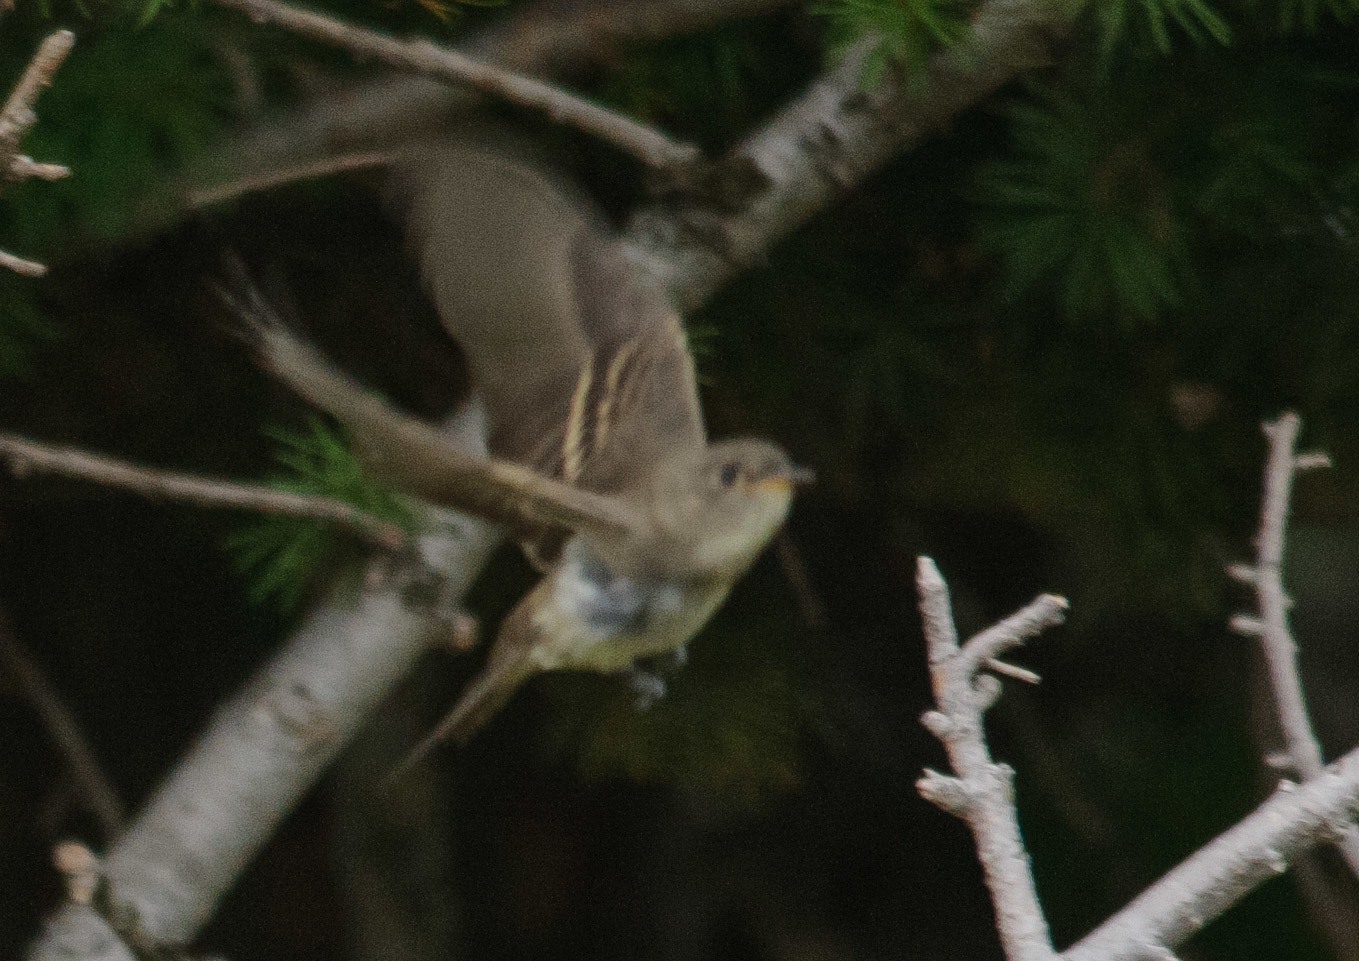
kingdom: Animalia
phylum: Chordata
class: Aves
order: Passeriformes
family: Tyrannidae
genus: Contopus
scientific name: Contopus sordidulus
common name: Western wood-pewee
